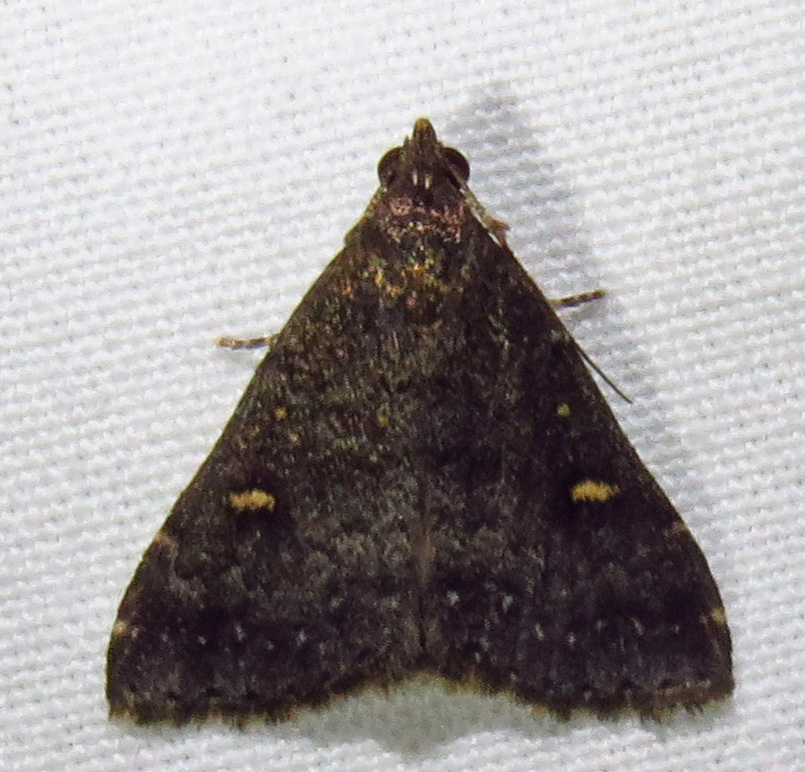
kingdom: Animalia
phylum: Arthropoda
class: Insecta
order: Lepidoptera
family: Erebidae
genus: Tetanolita
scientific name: Tetanolita mynesalis
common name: Smoky tetanolita moth
